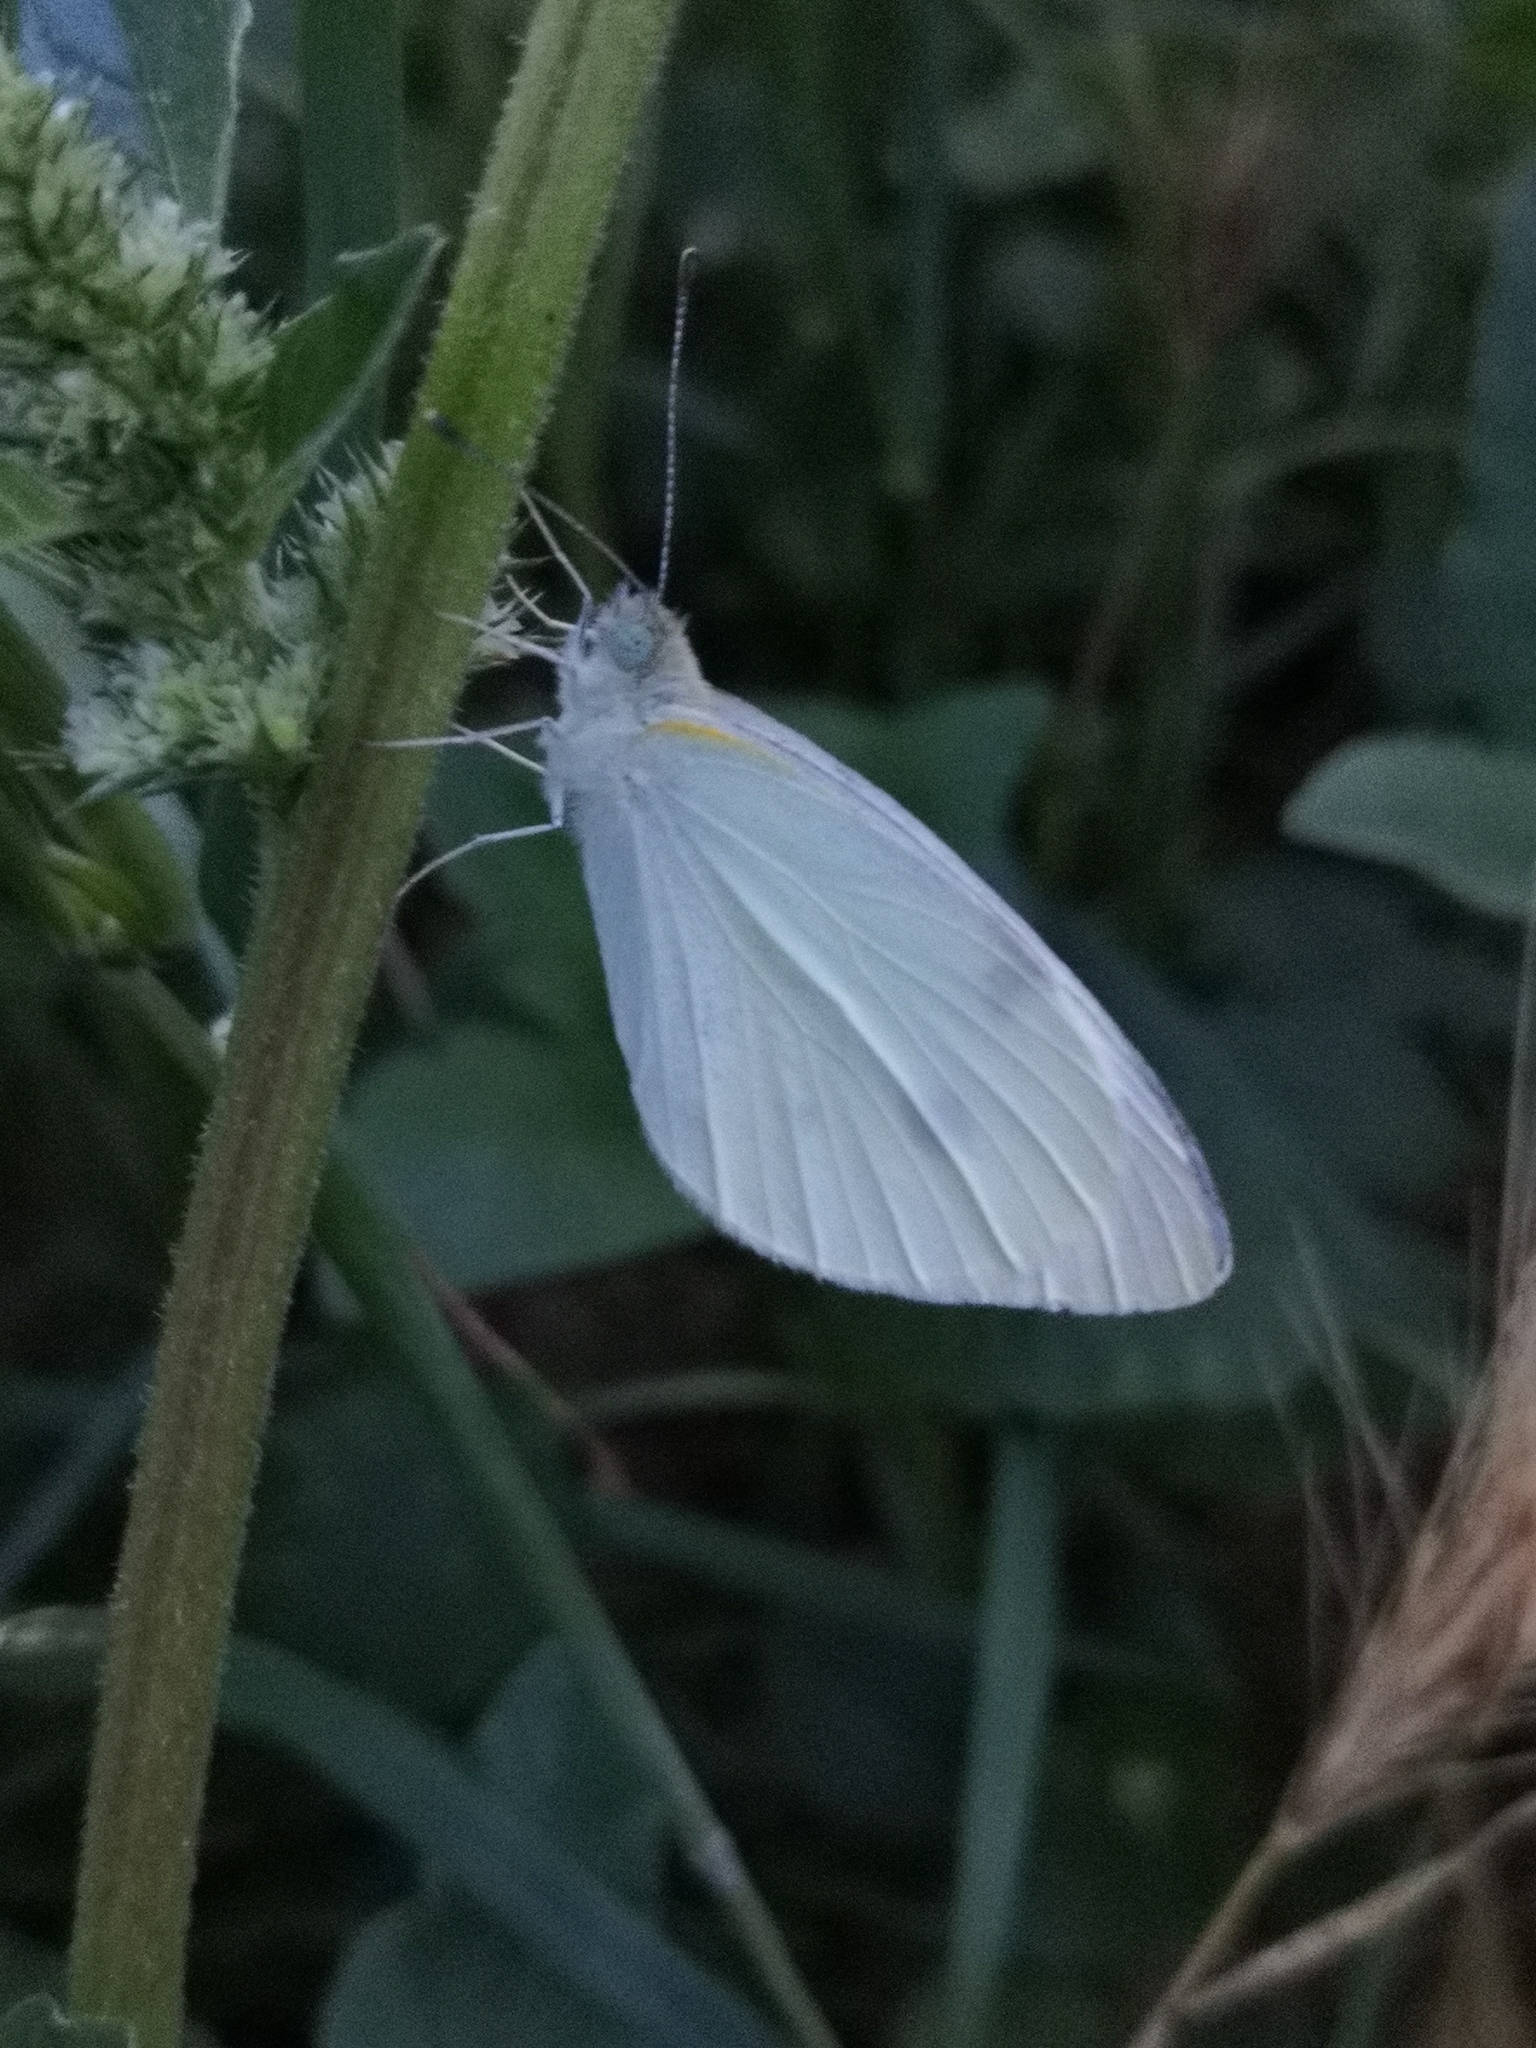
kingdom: Animalia
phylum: Arthropoda
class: Insecta
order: Lepidoptera
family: Pieridae
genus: Pieris
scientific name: Pieris rapae
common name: Small white
